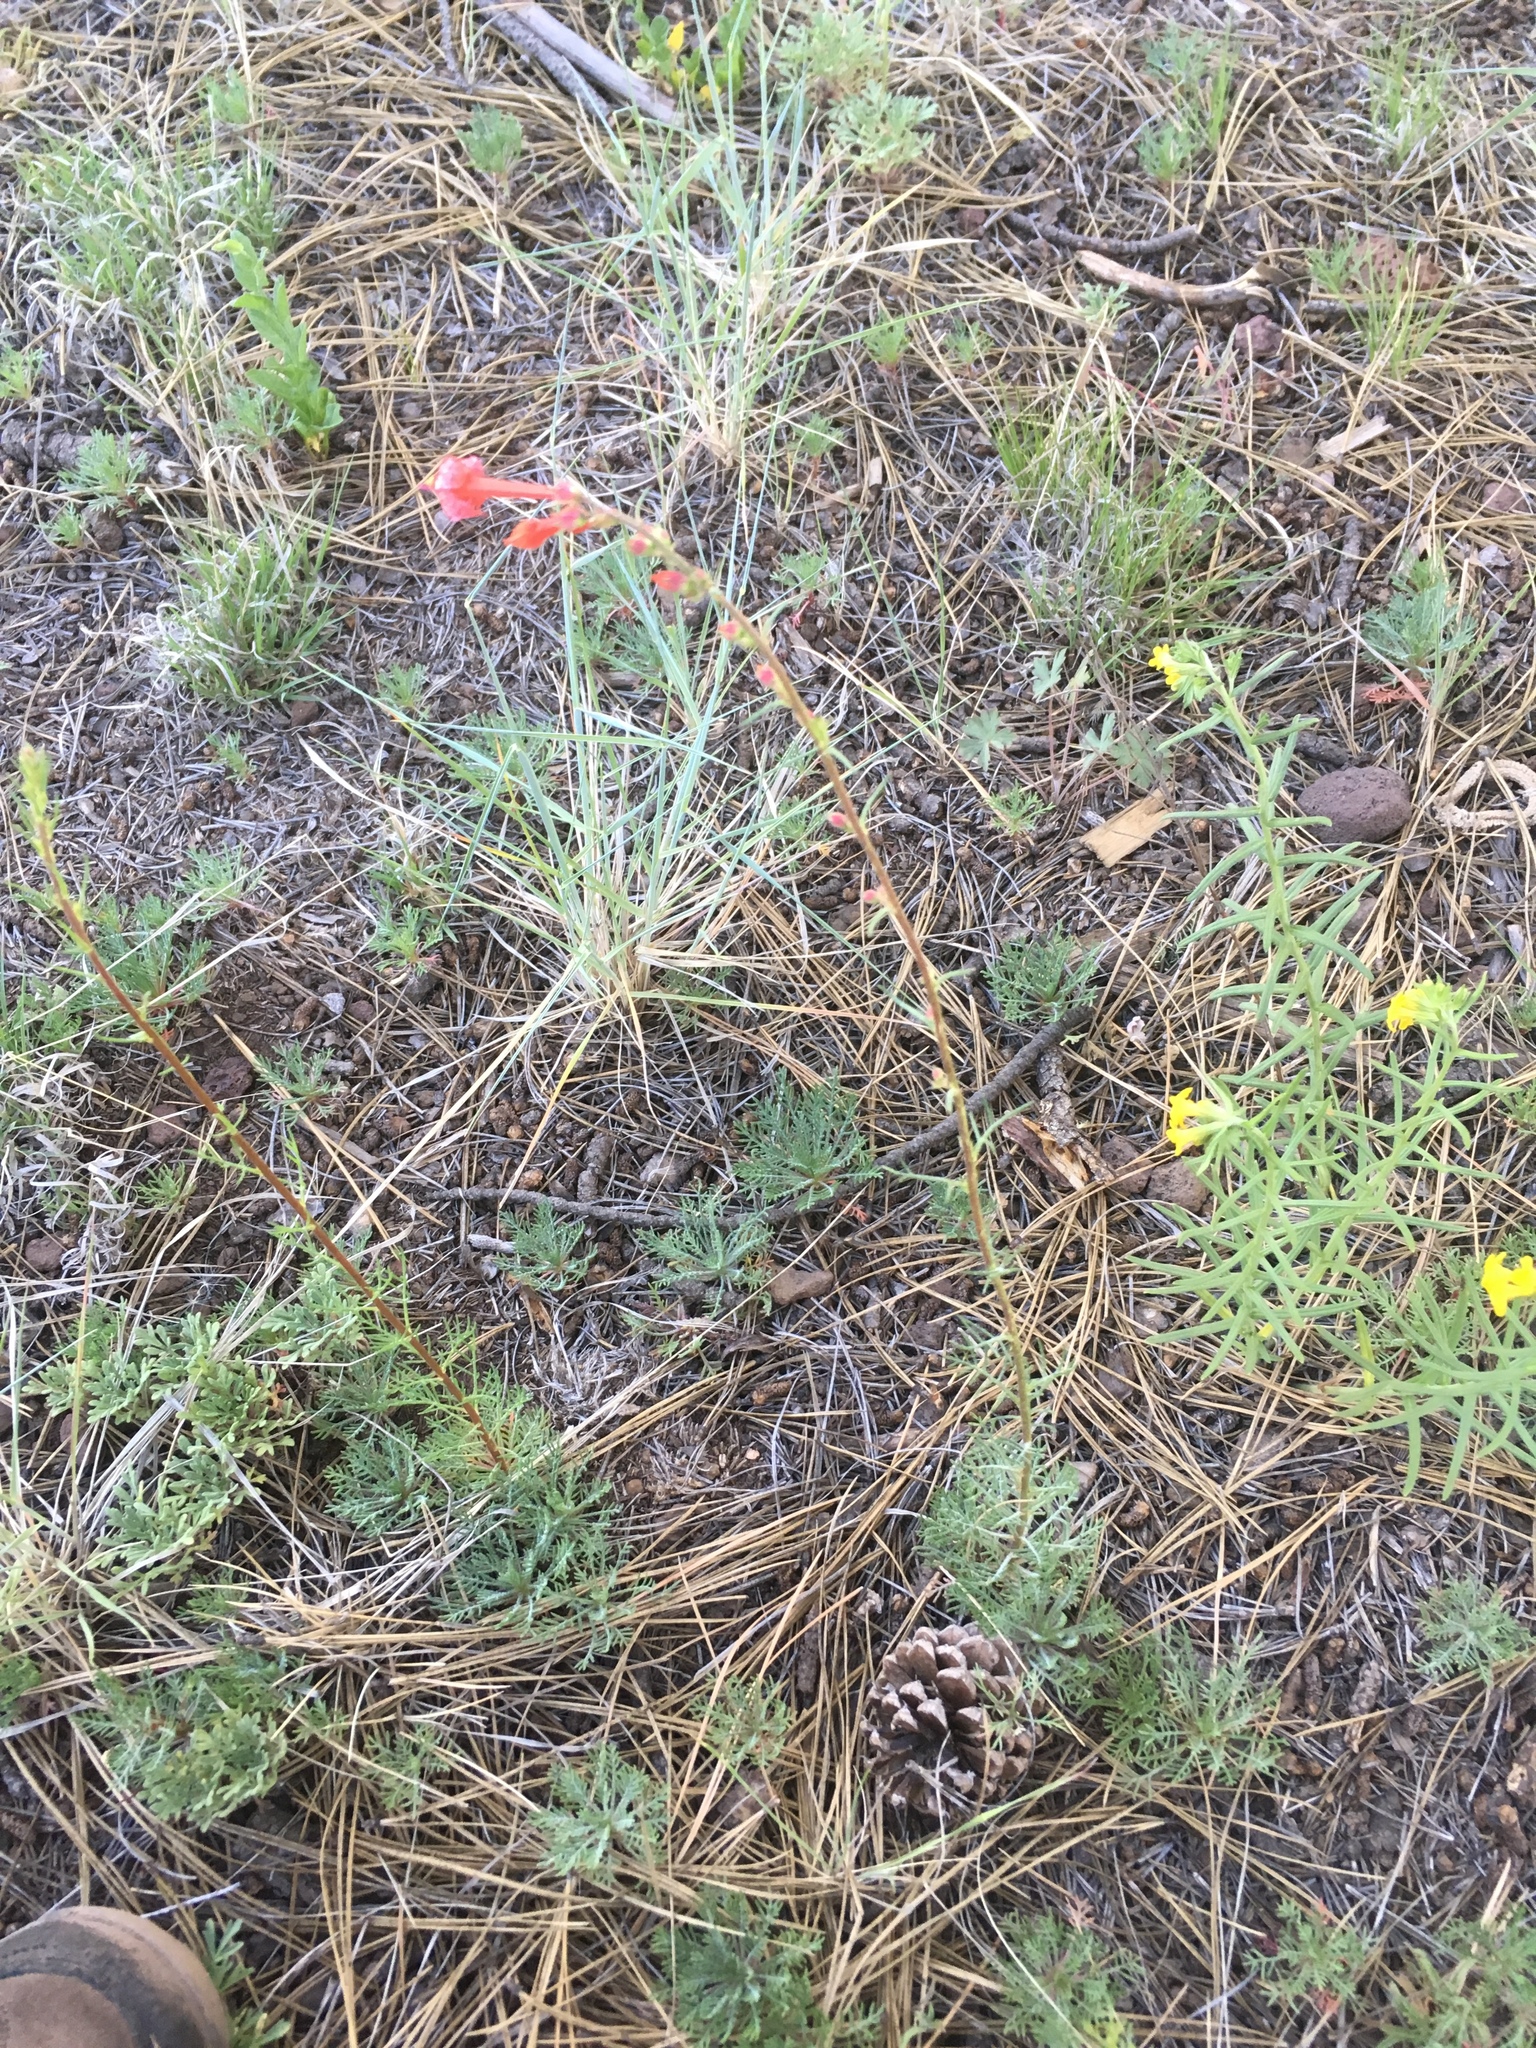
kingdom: Plantae
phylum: Tracheophyta
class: Magnoliopsida
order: Ericales
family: Polemoniaceae
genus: Ipomopsis
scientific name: Ipomopsis aggregata
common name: Scarlet gilia
